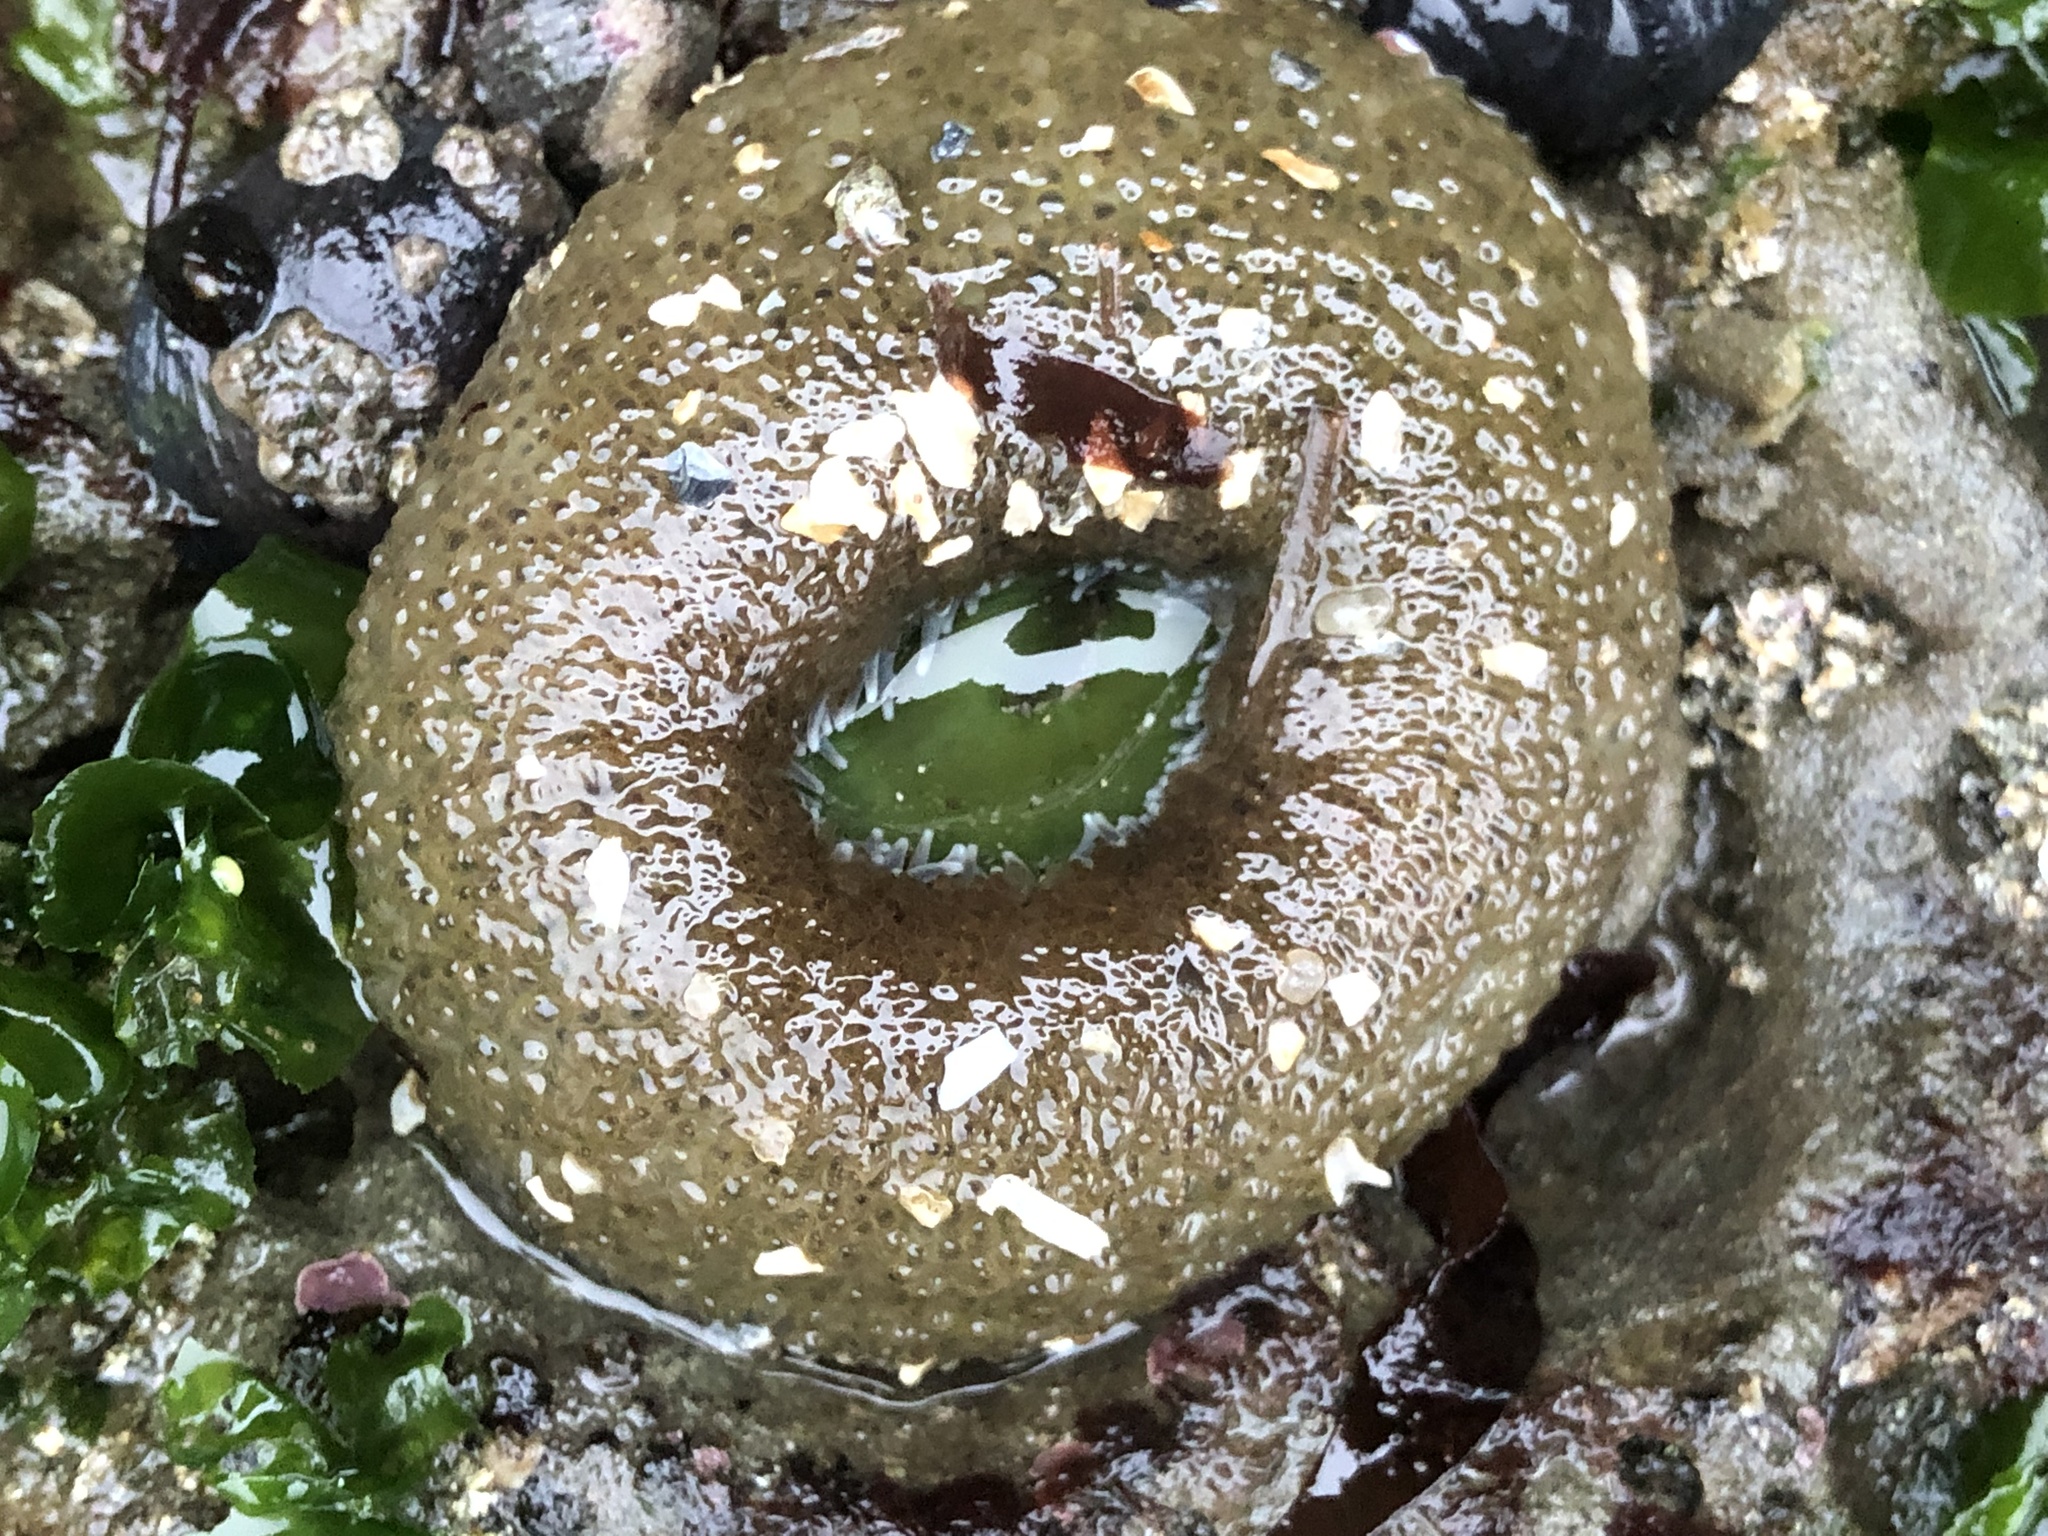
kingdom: Animalia
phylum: Cnidaria
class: Anthozoa
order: Actiniaria
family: Actiniidae
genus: Anthopleura
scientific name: Anthopleura xanthogrammica
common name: Giant green anemone
